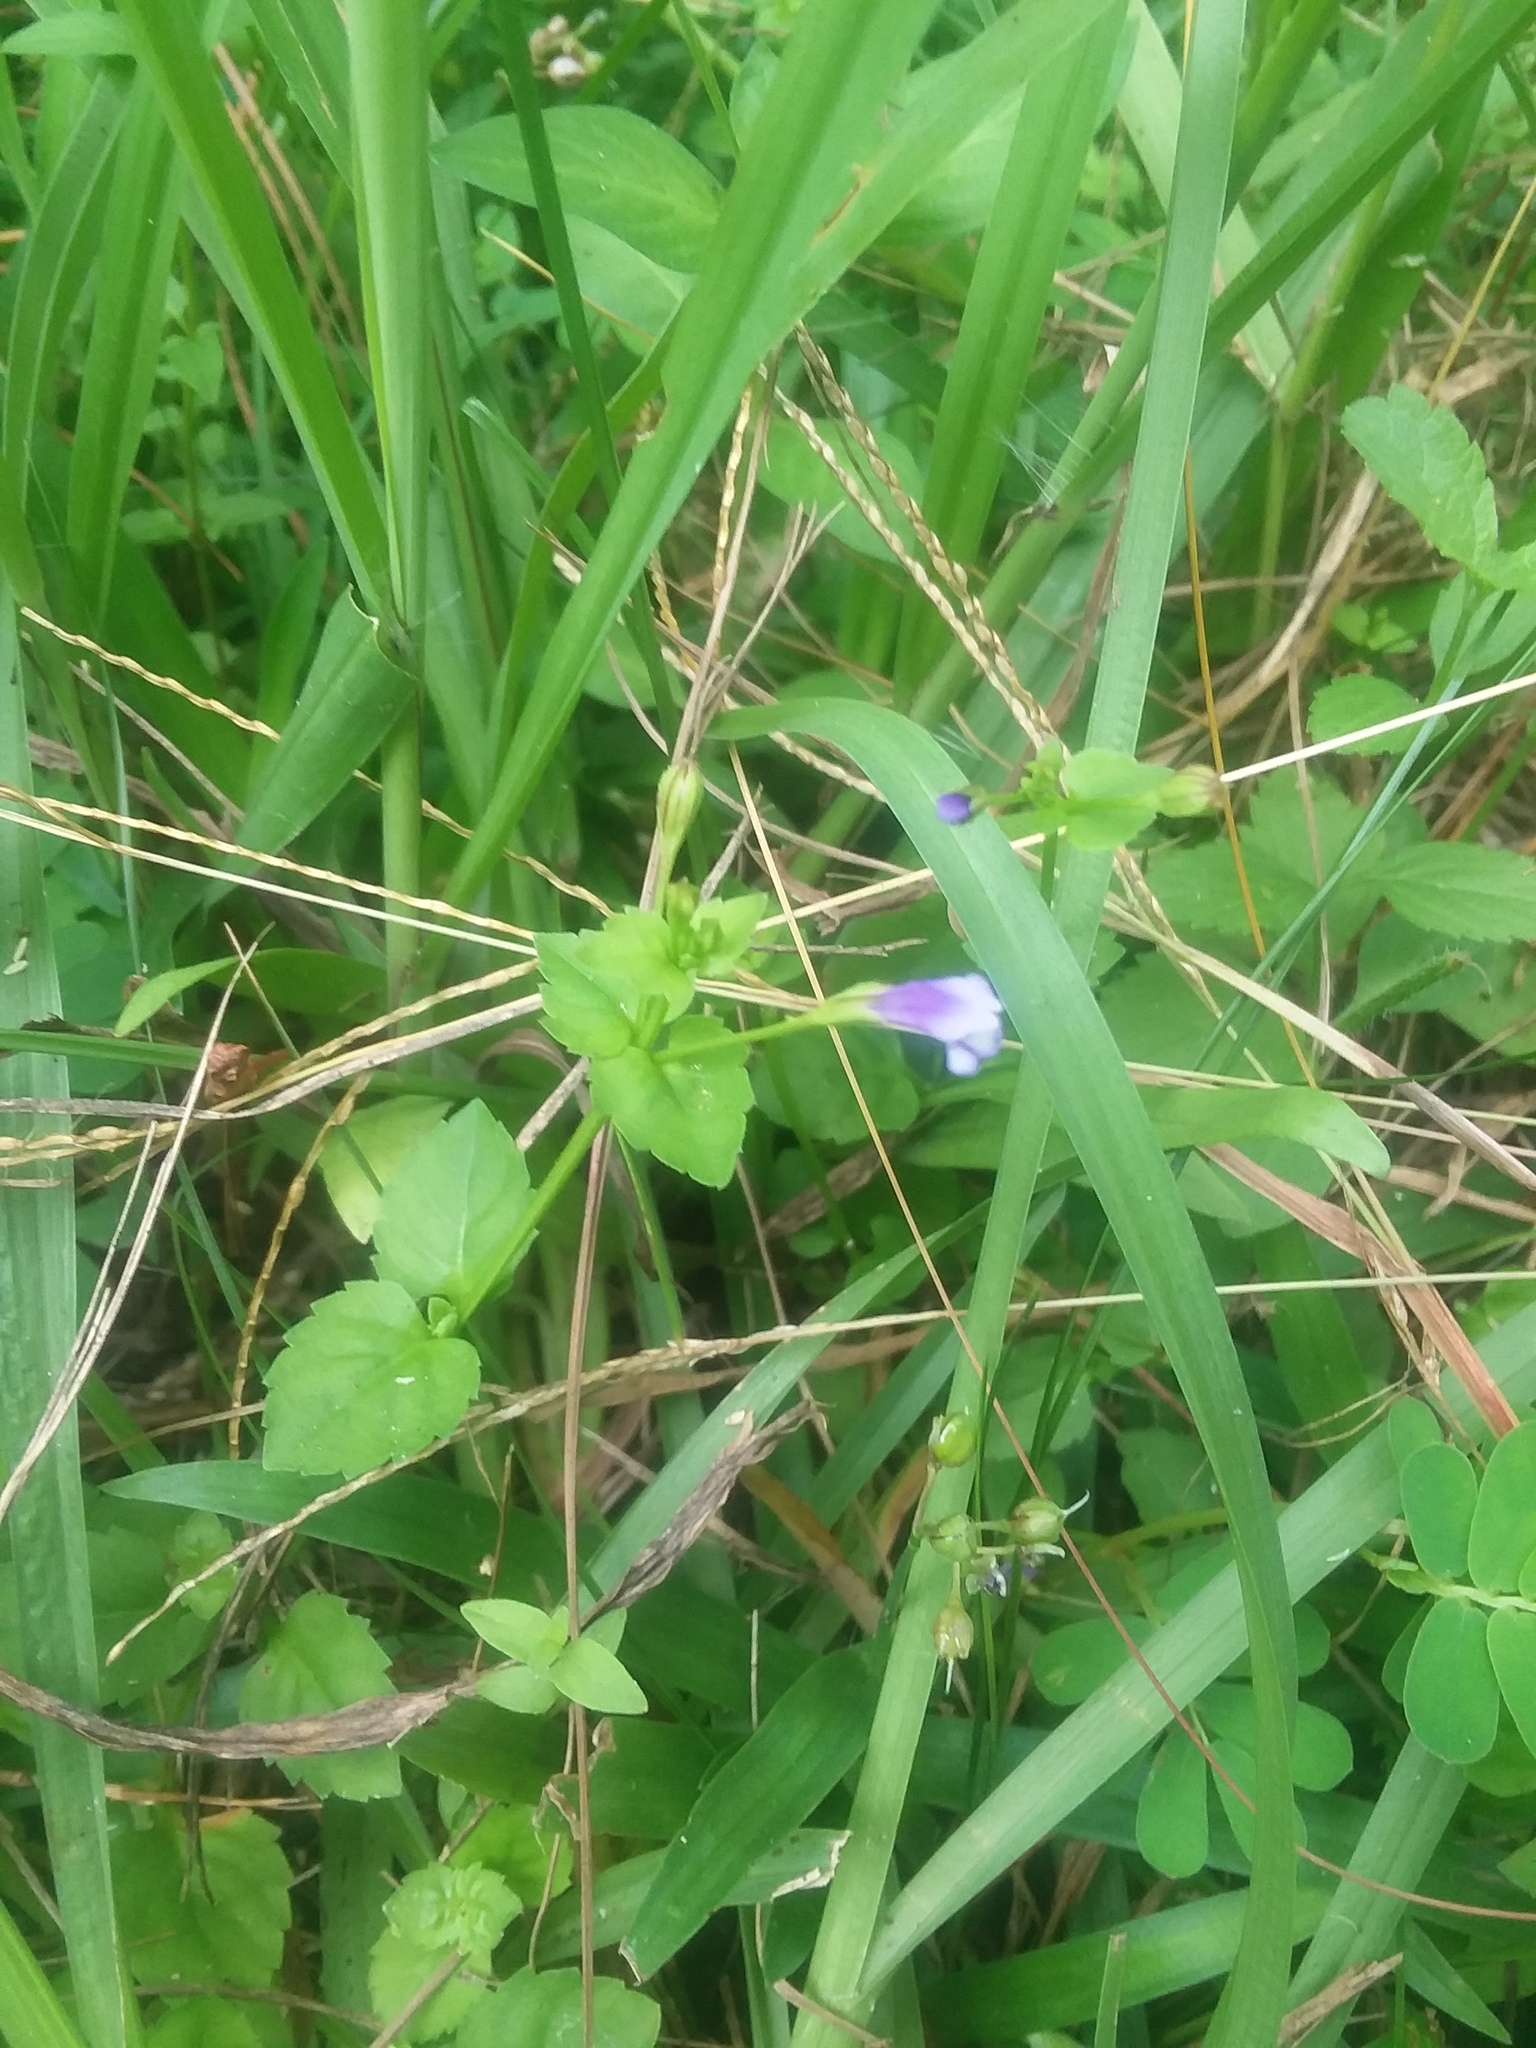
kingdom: Plantae
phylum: Tracheophyta
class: Magnoliopsida
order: Lamiales
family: Linderniaceae
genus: Torenia
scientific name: Torenia crustacea
